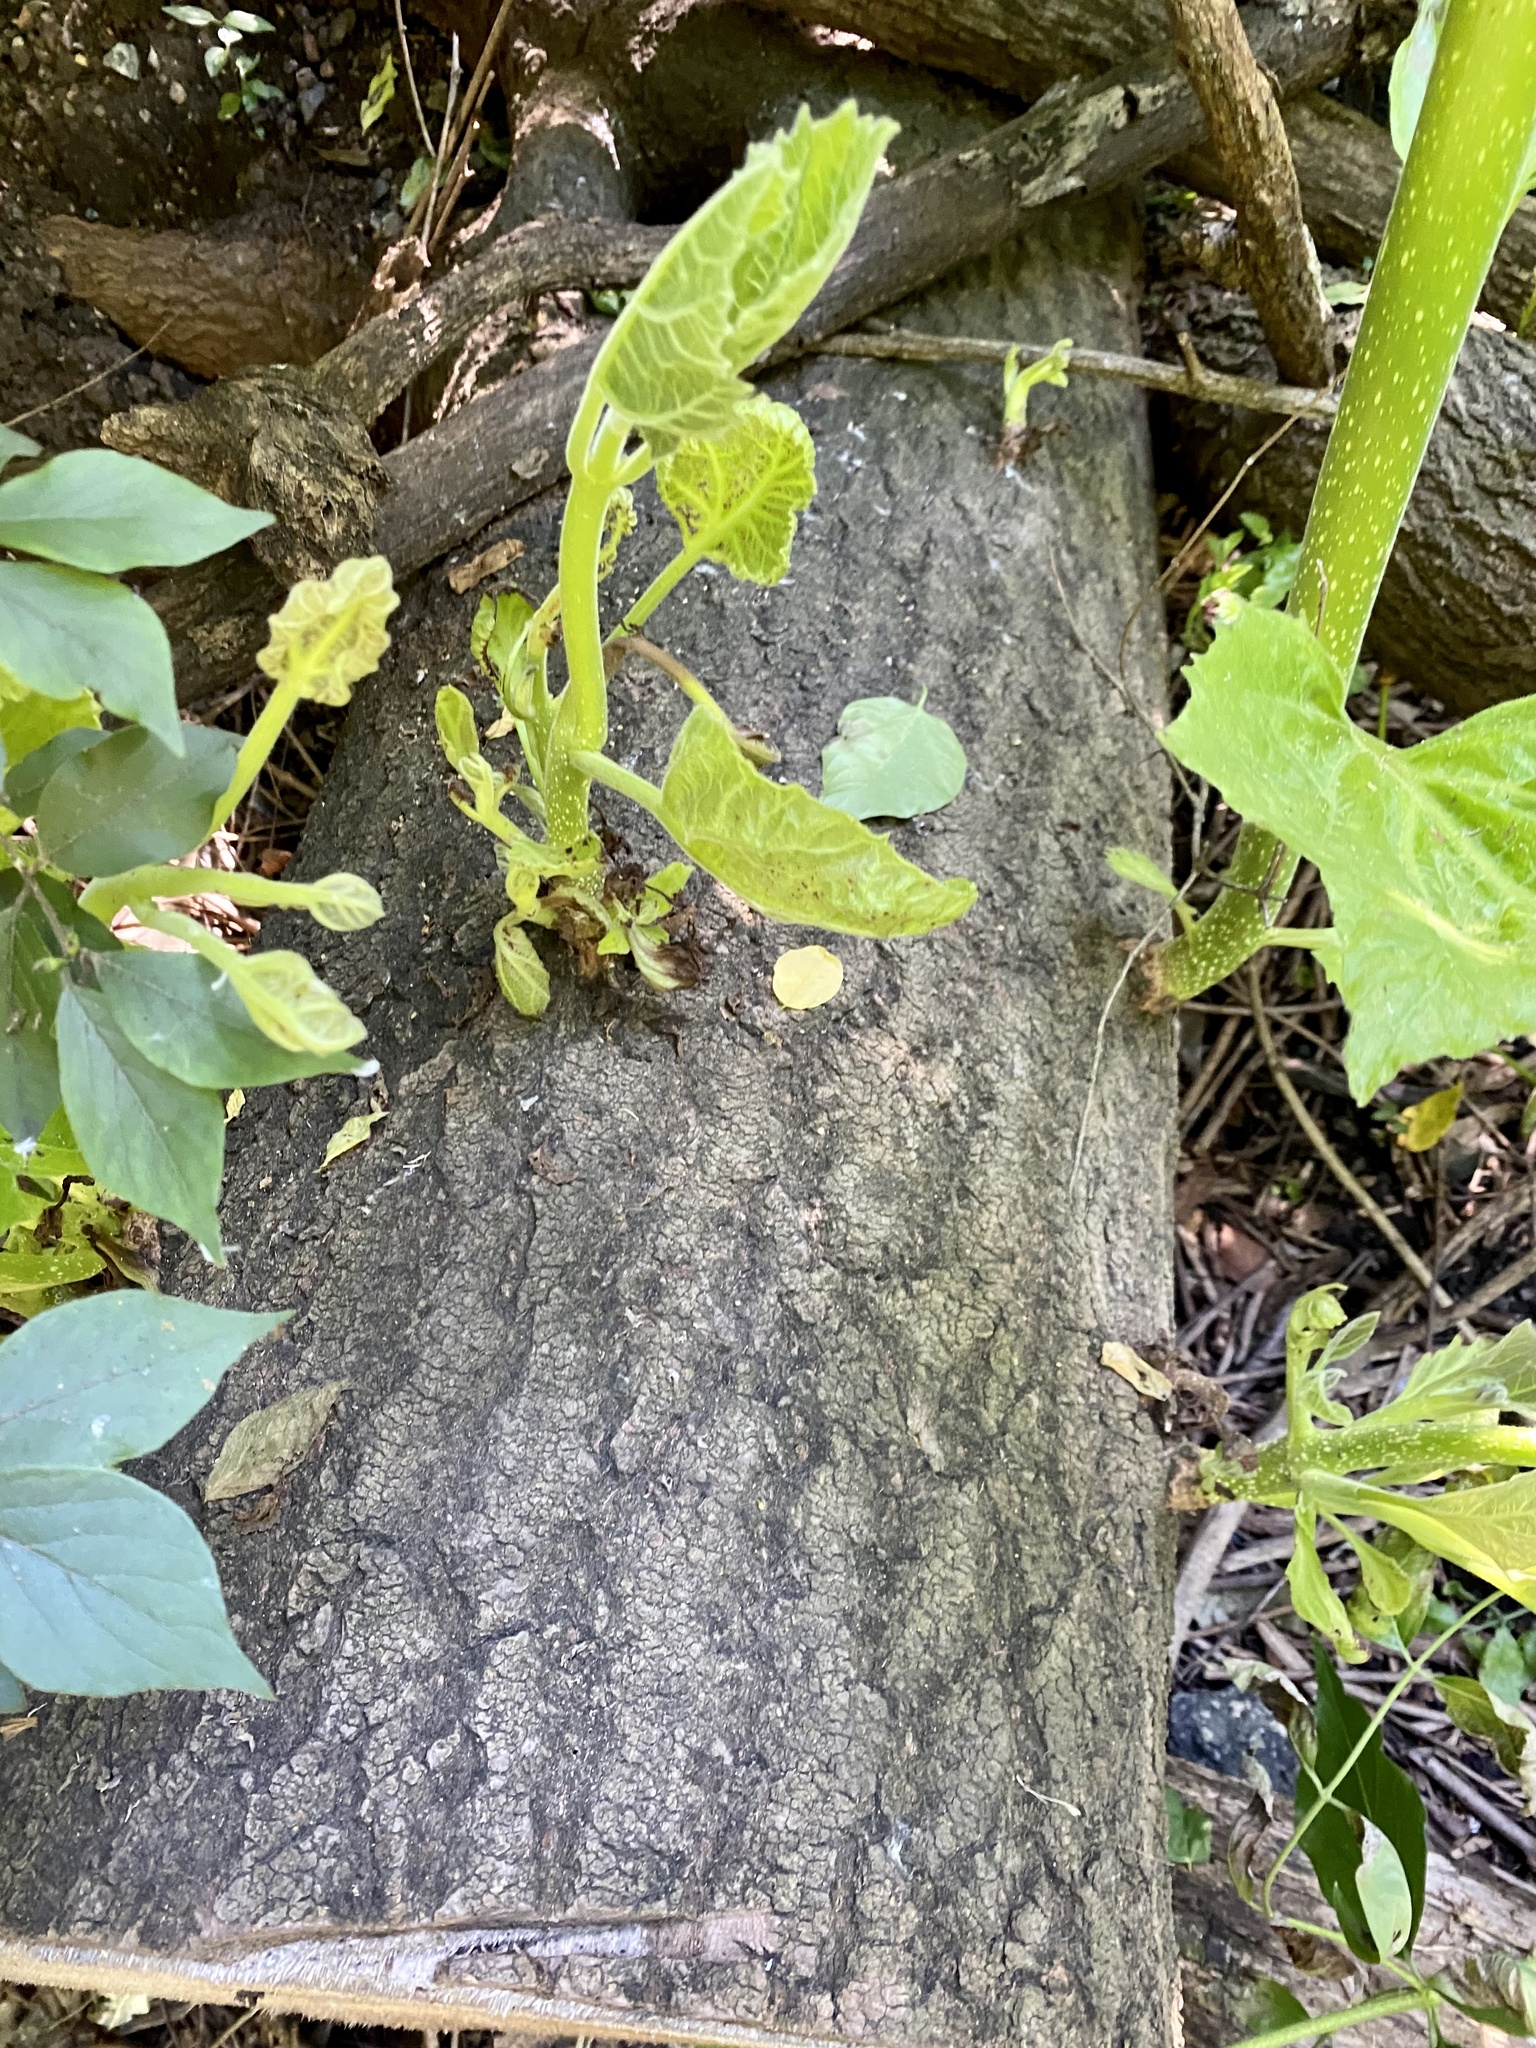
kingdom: Plantae
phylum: Tracheophyta
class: Magnoliopsida
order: Lamiales
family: Paulowniaceae
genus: Paulownia
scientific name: Paulownia tomentosa
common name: Foxglove-tree
